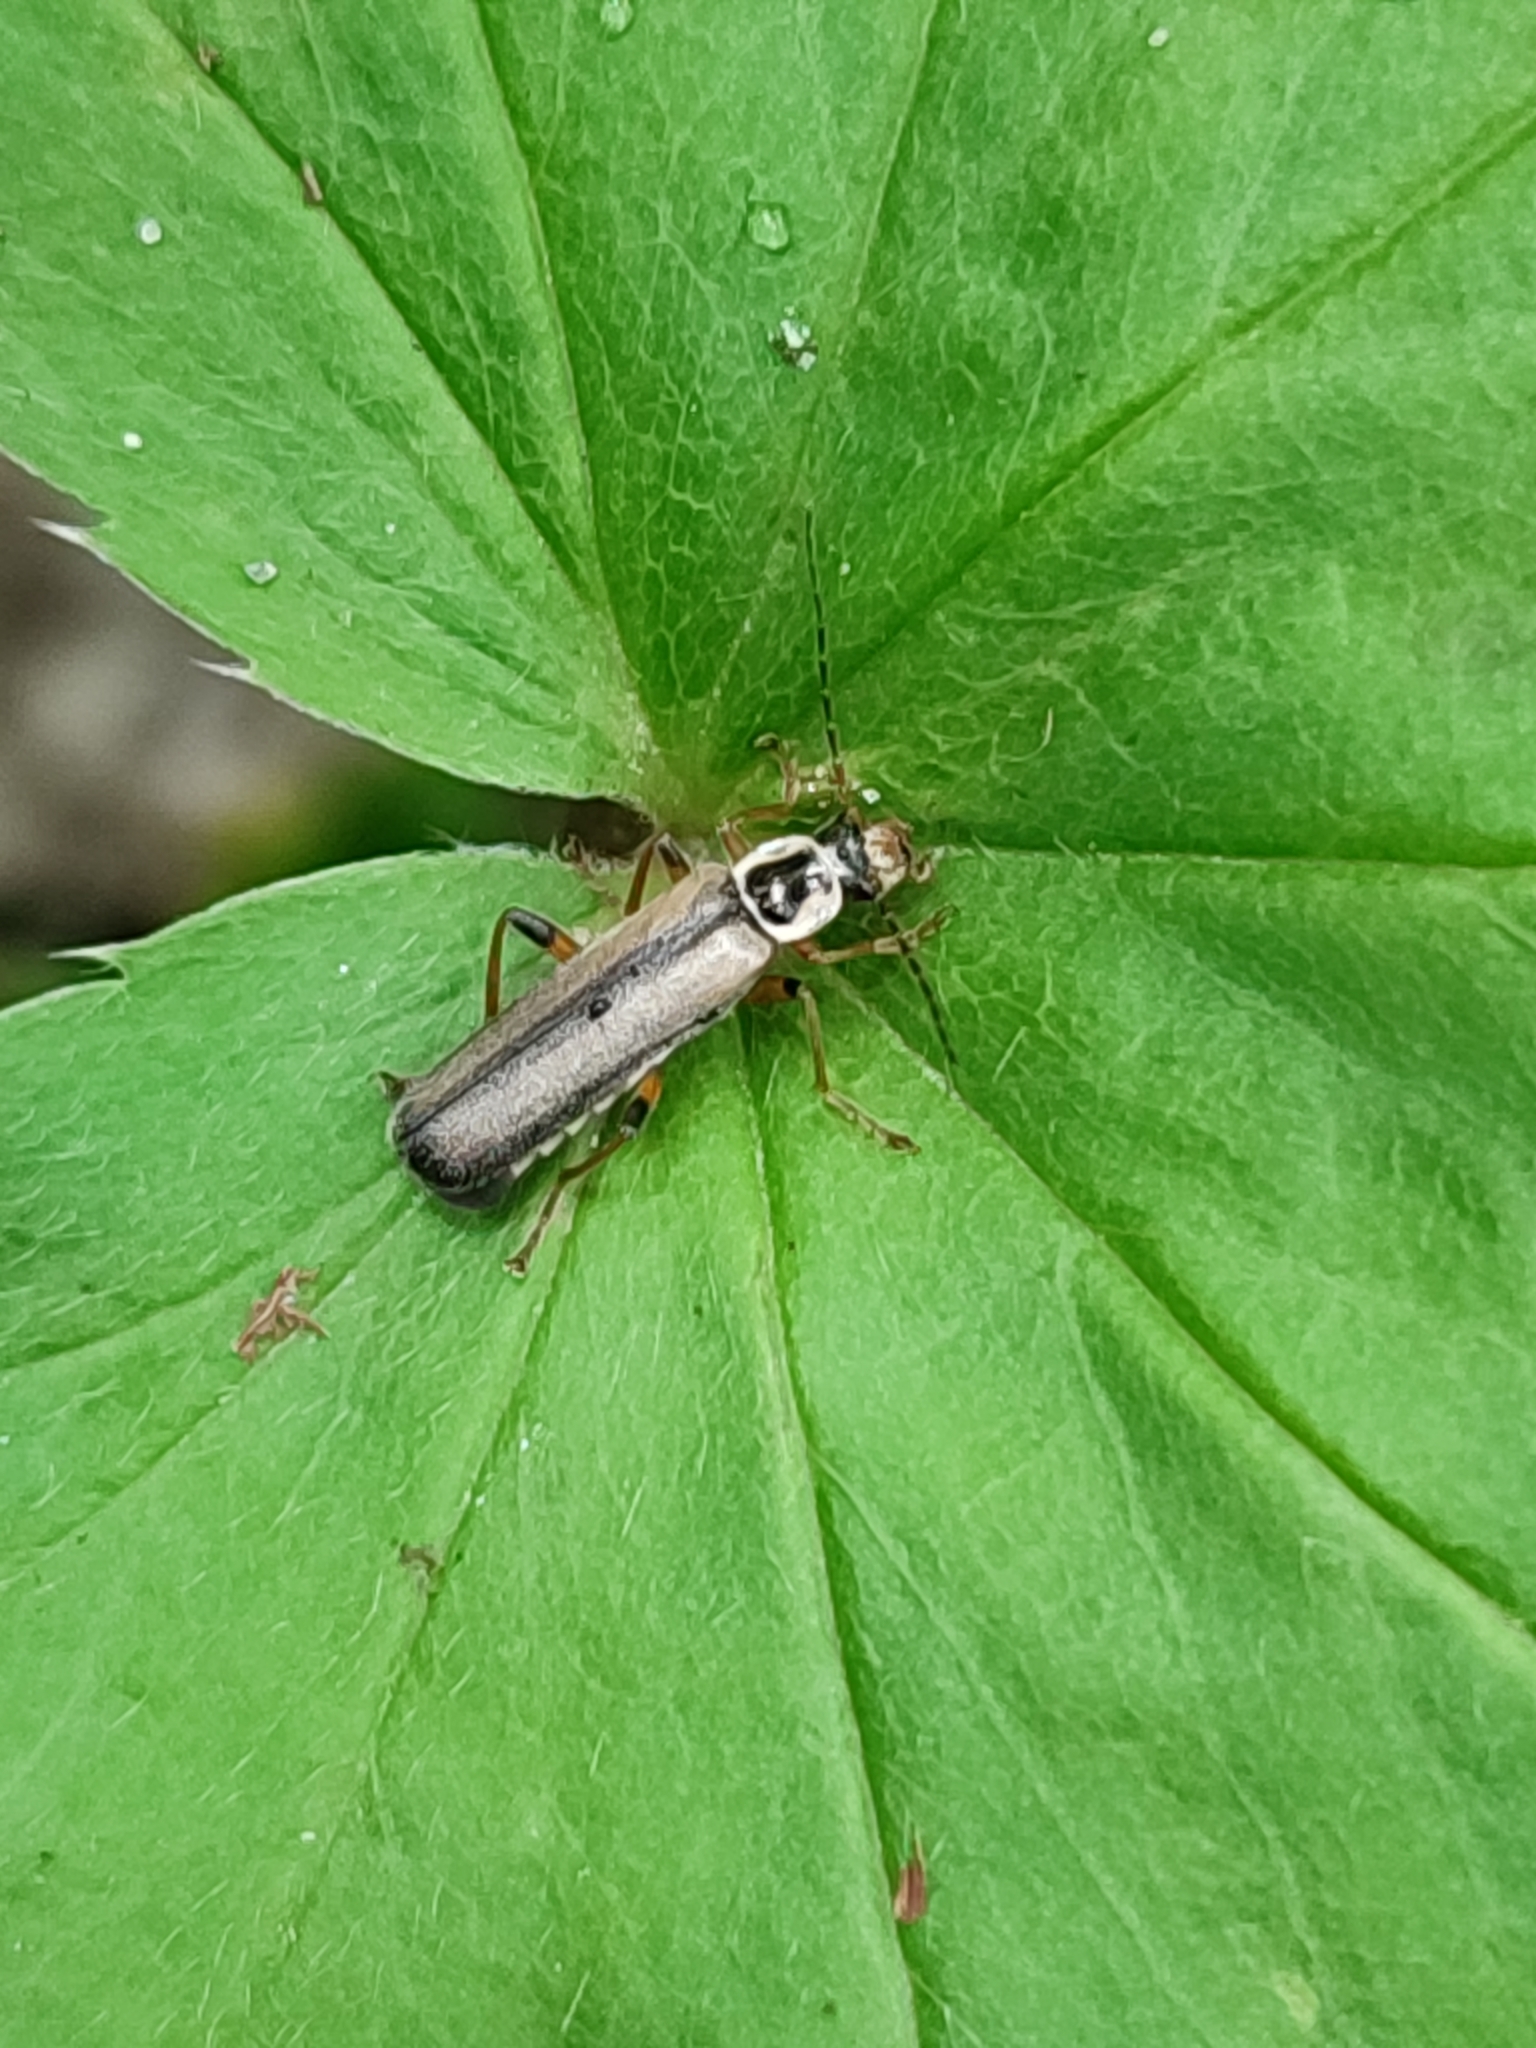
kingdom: Animalia
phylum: Arthropoda
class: Insecta
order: Coleoptera
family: Cantharidae
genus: Boveycantharis
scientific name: Boveycantharis rufimana
